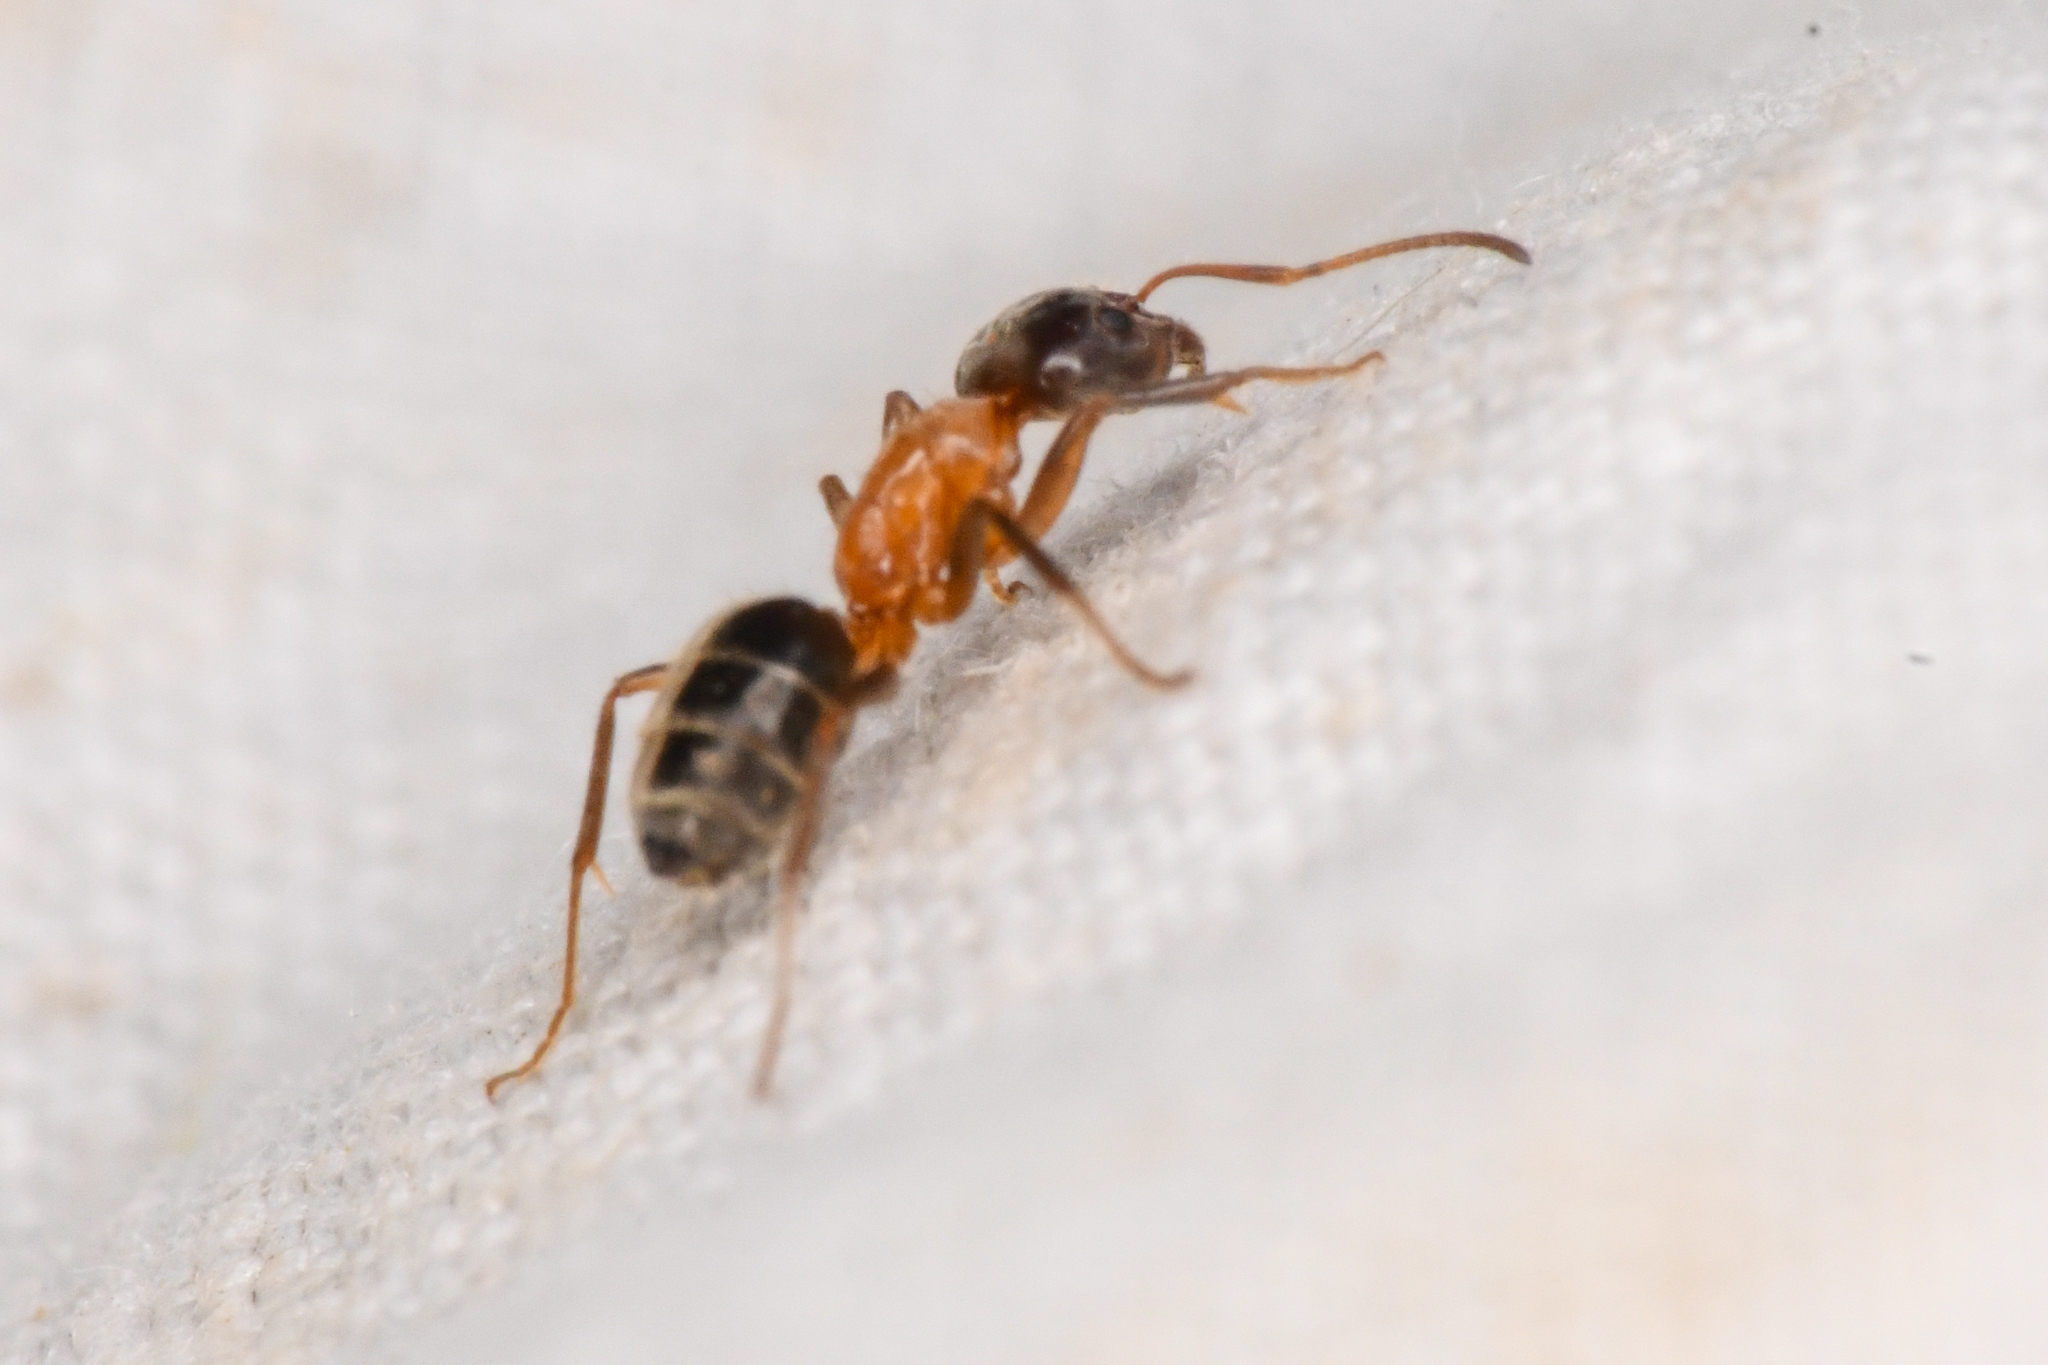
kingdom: Animalia
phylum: Arthropoda
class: Insecta
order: Hymenoptera
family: Formicidae
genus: Liometopum
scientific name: Liometopum occidentale
